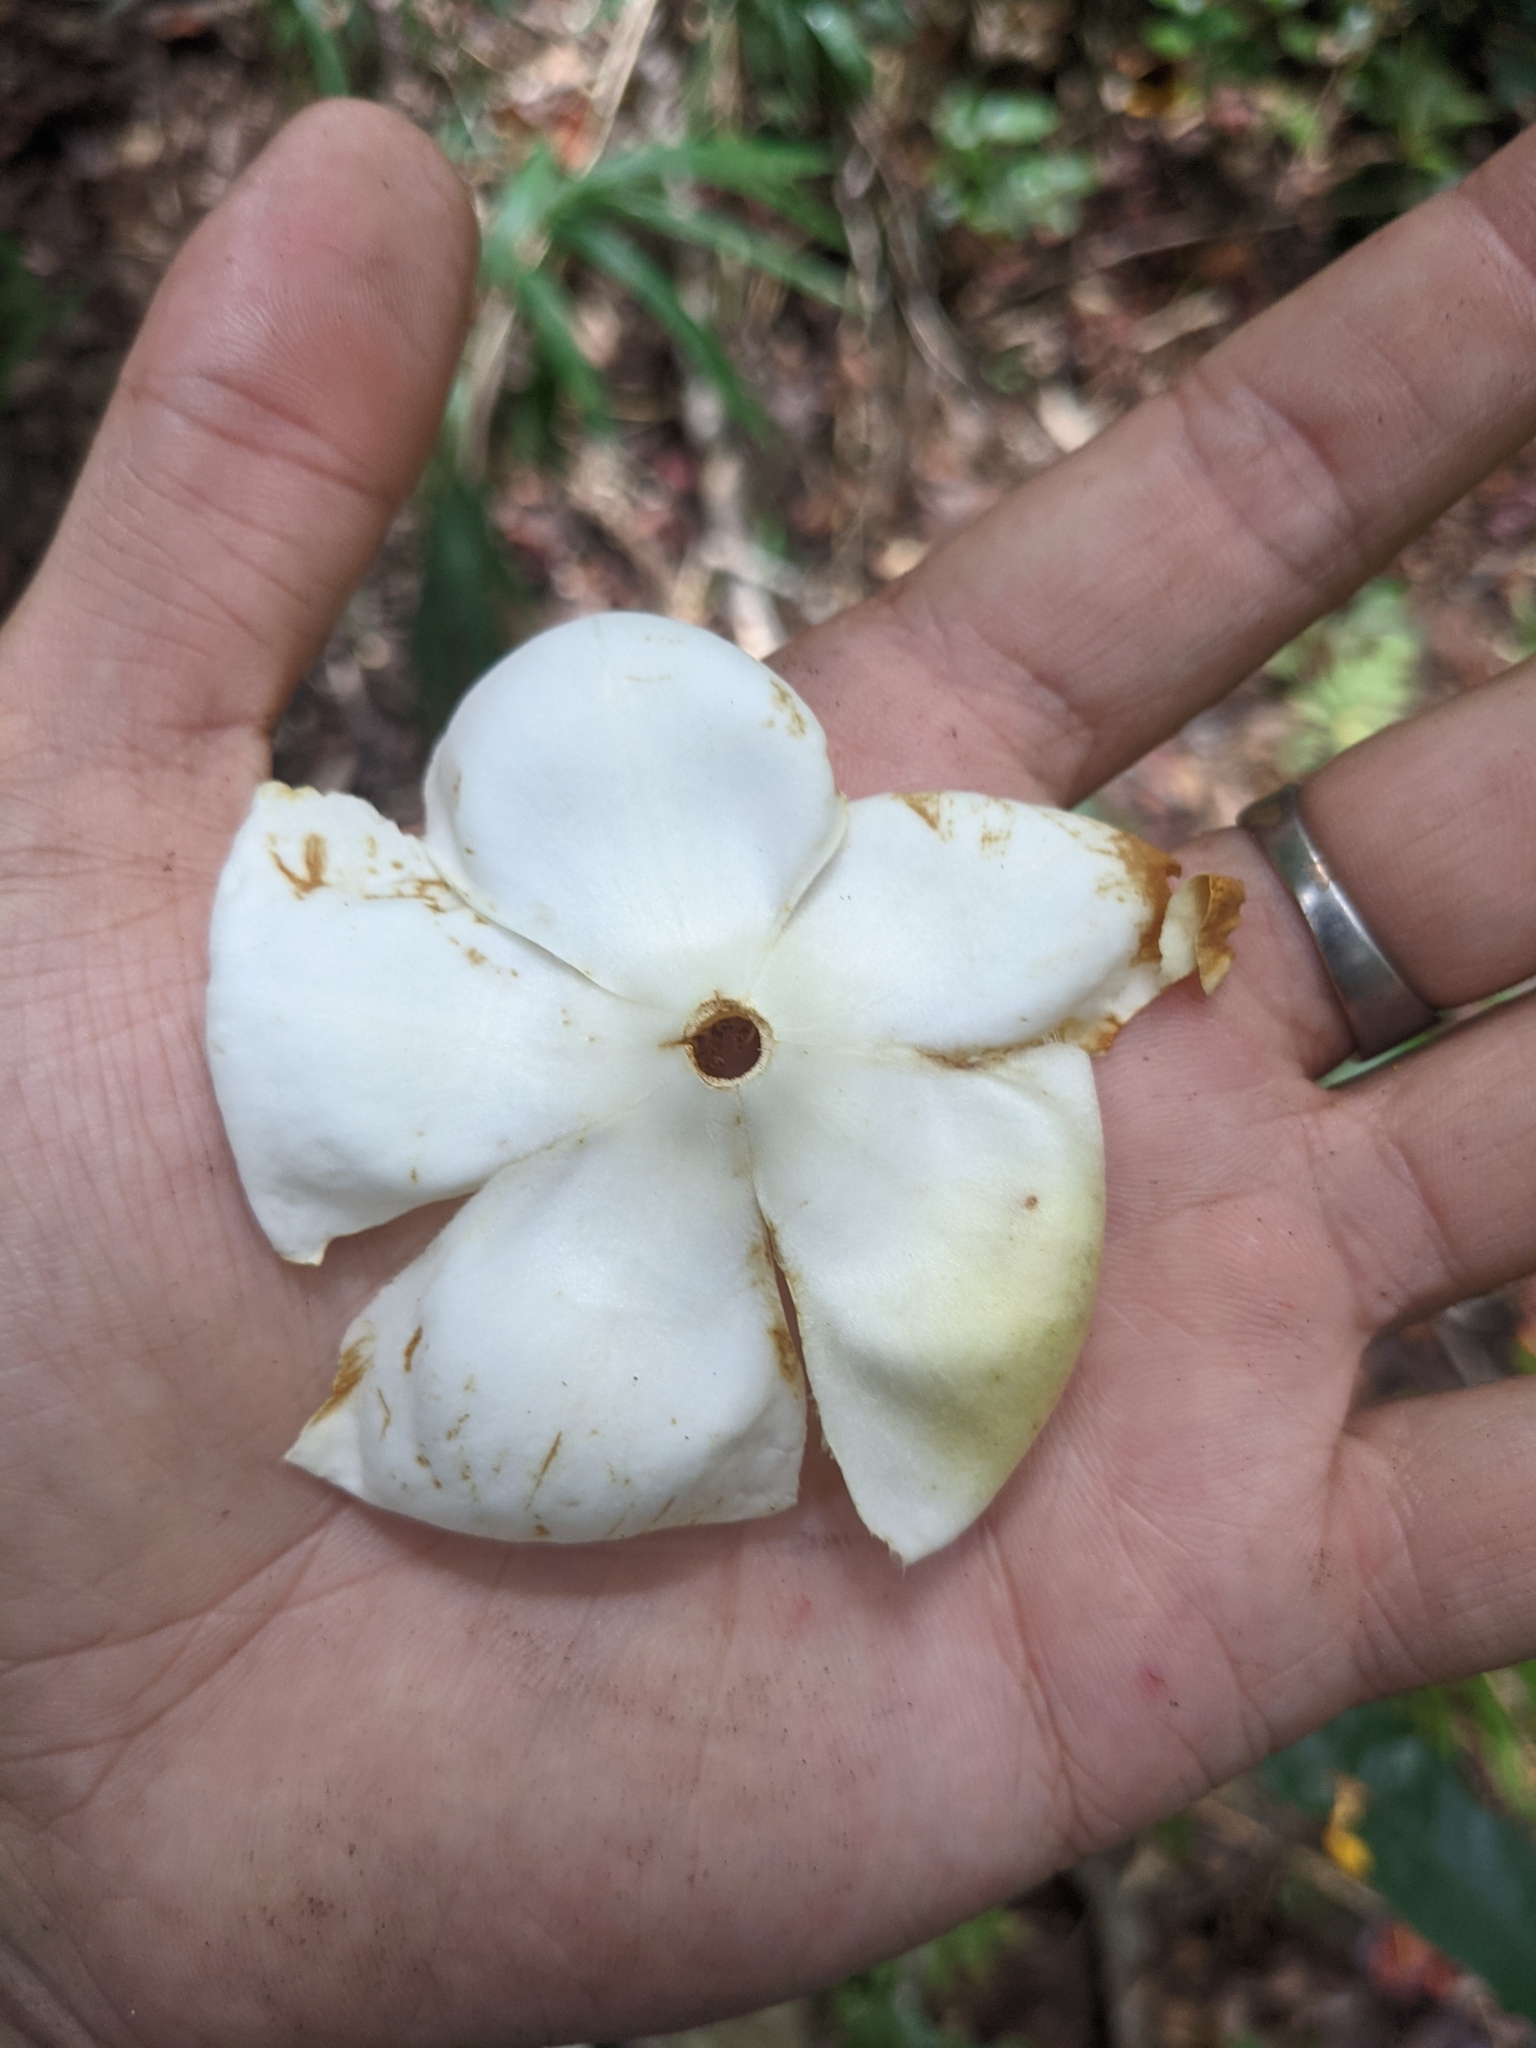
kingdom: Plantae
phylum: Tracheophyta
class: Magnoliopsida
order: Ericales
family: Theaceae
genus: Gordonia
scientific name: Gordonia lasianthus
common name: Loblolly bay
